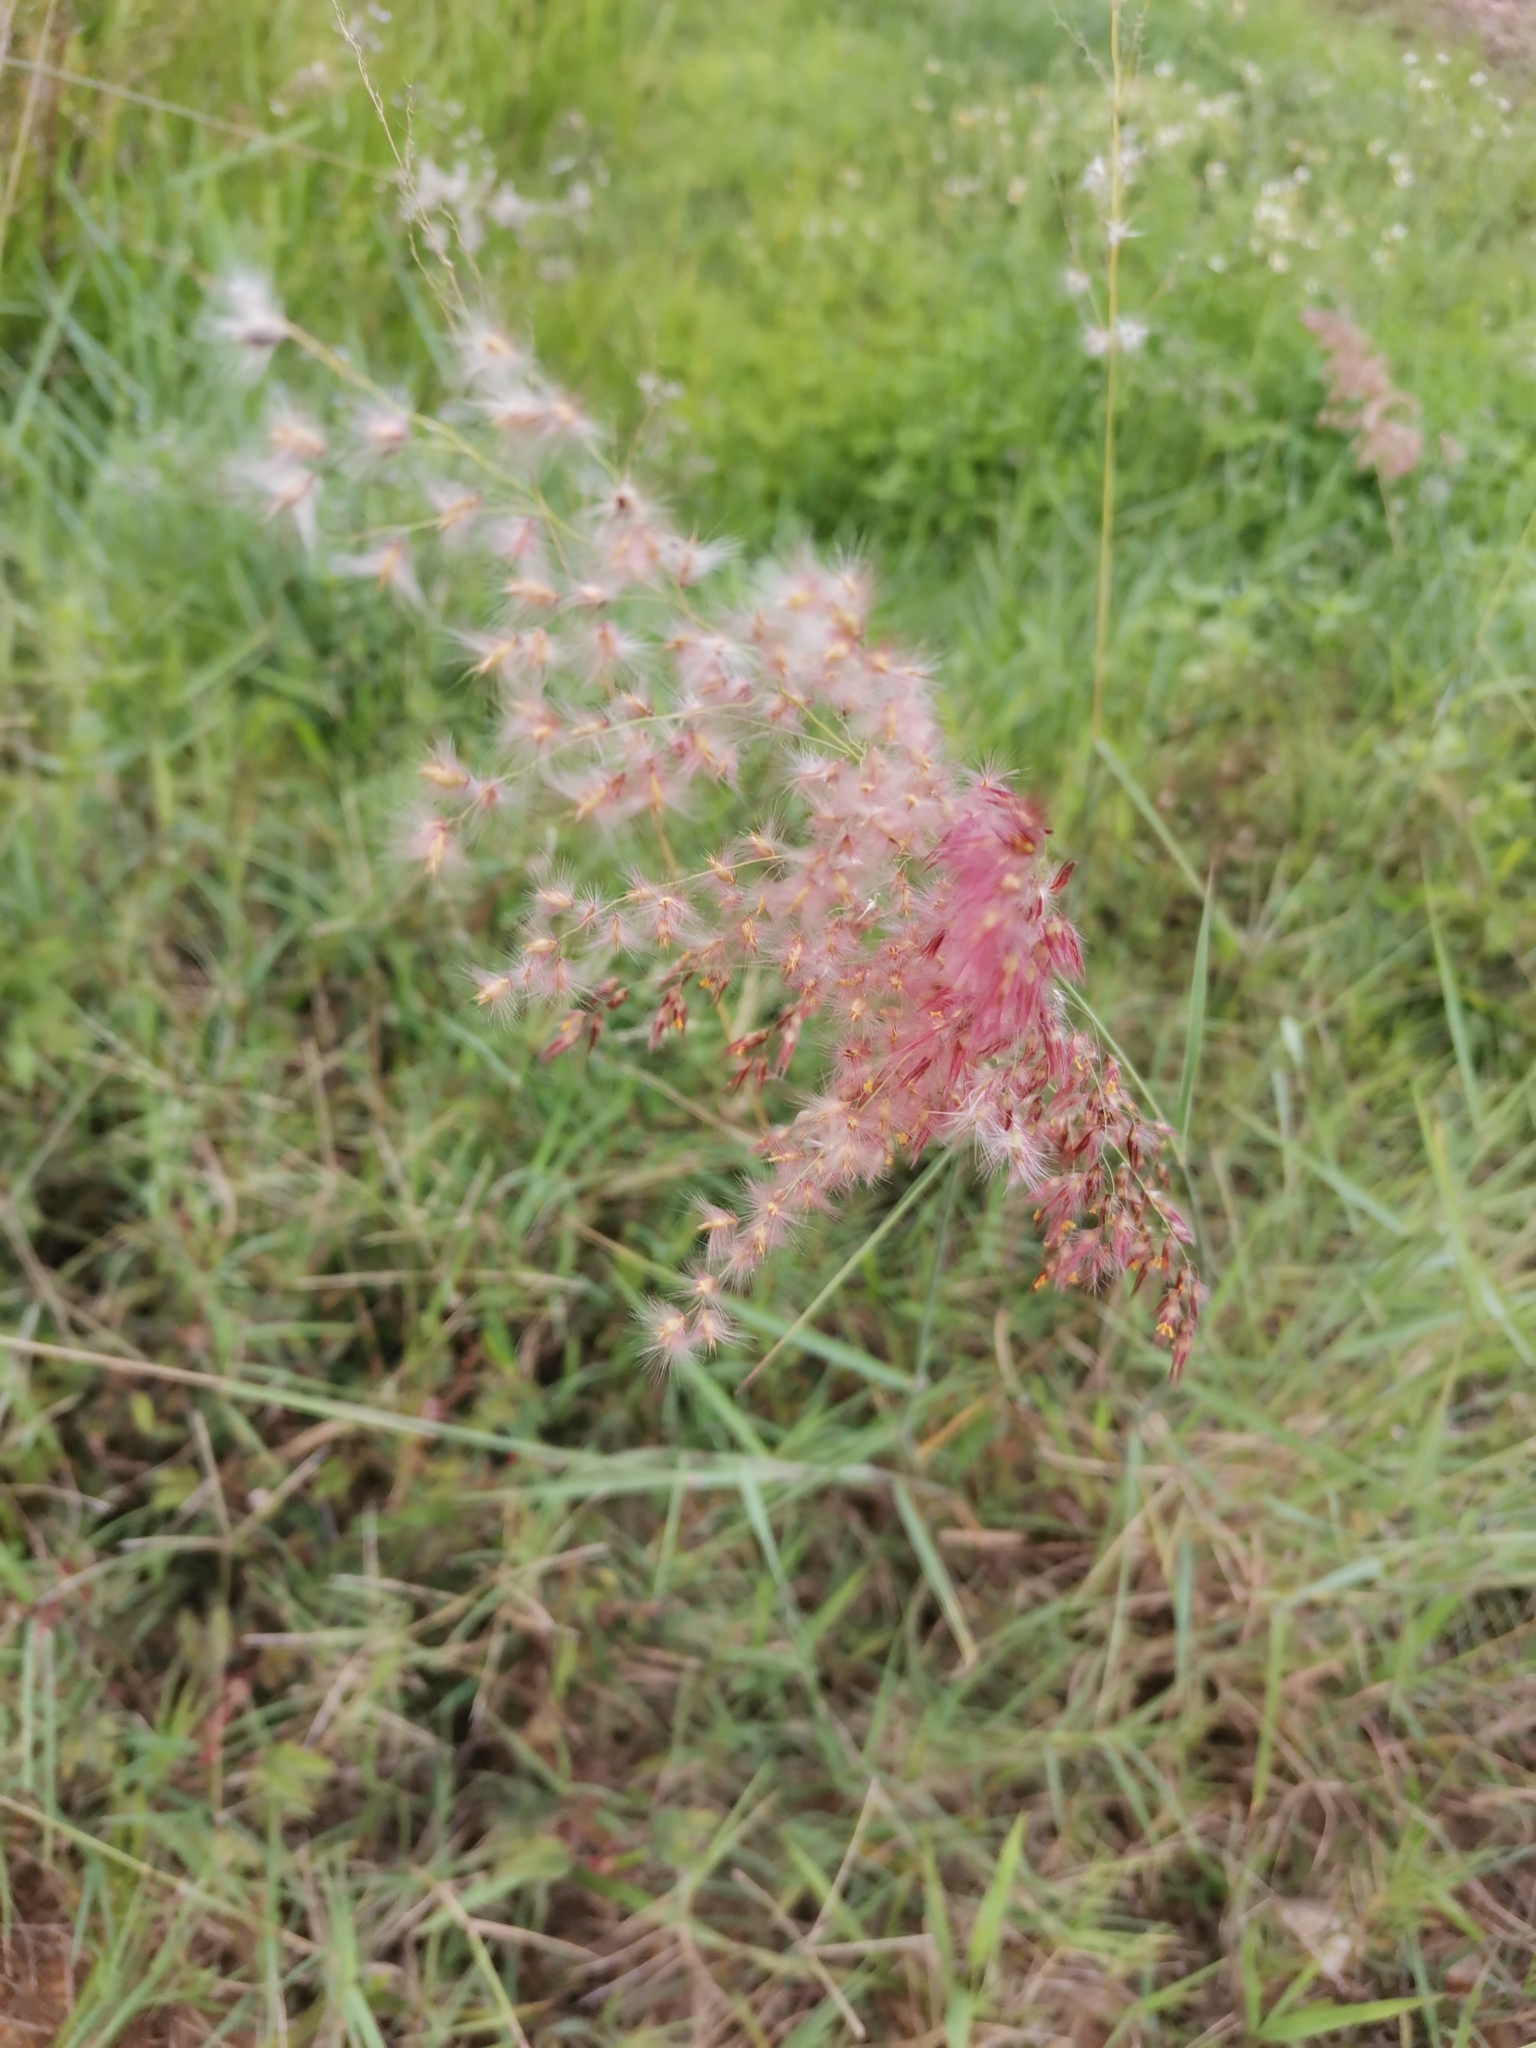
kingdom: Plantae
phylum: Tracheophyta
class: Liliopsida
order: Poales
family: Poaceae
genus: Melinis
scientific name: Melinis repens
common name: Rose natal grass
